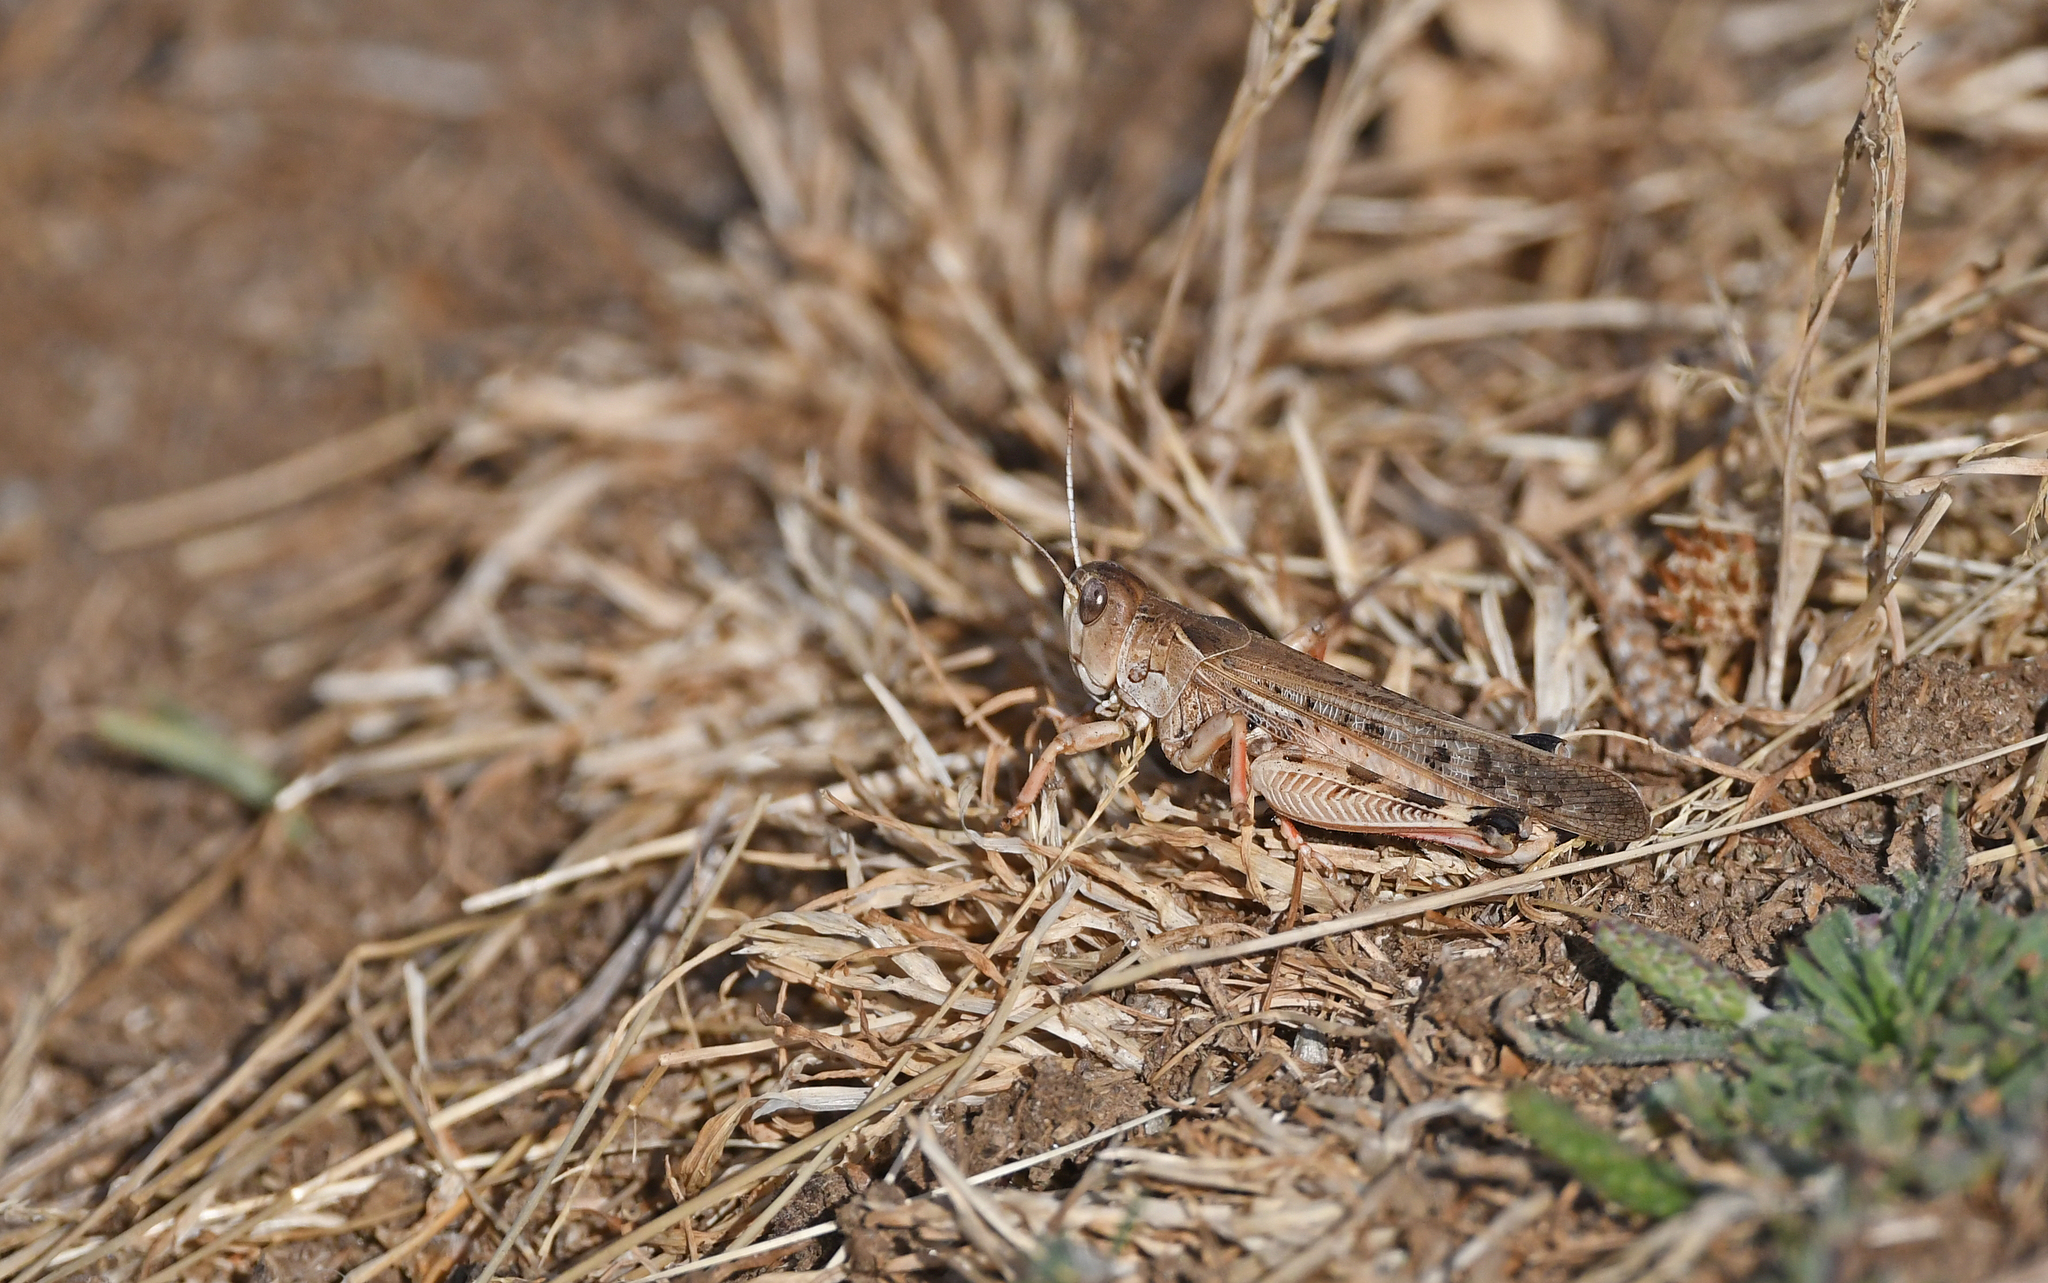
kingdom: Animalia
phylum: Arthropoda
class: Insecta
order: Orthoptera
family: Acrididae
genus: Dociostaurus
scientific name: Dociostaurus maroccanus
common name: Moroccan locust
